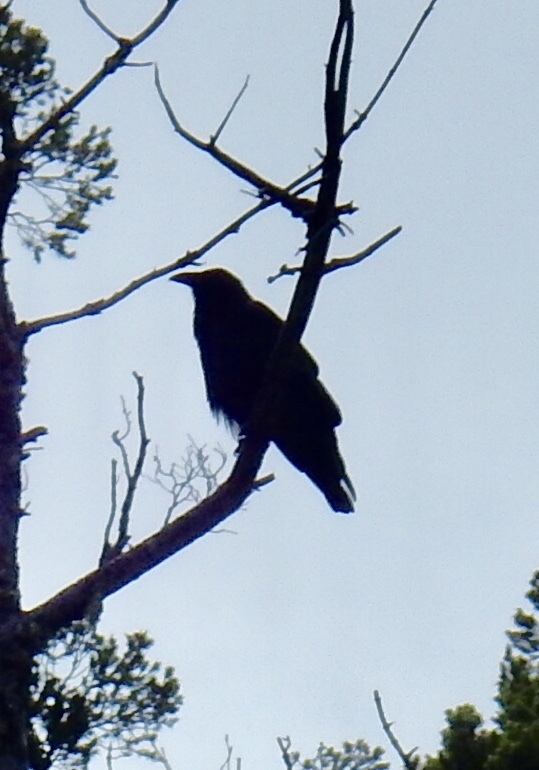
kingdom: Animalia
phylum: Chordata
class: Aves
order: Passeriformes
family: Corvidae
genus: Corvus
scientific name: Corvus corax
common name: Common raven
